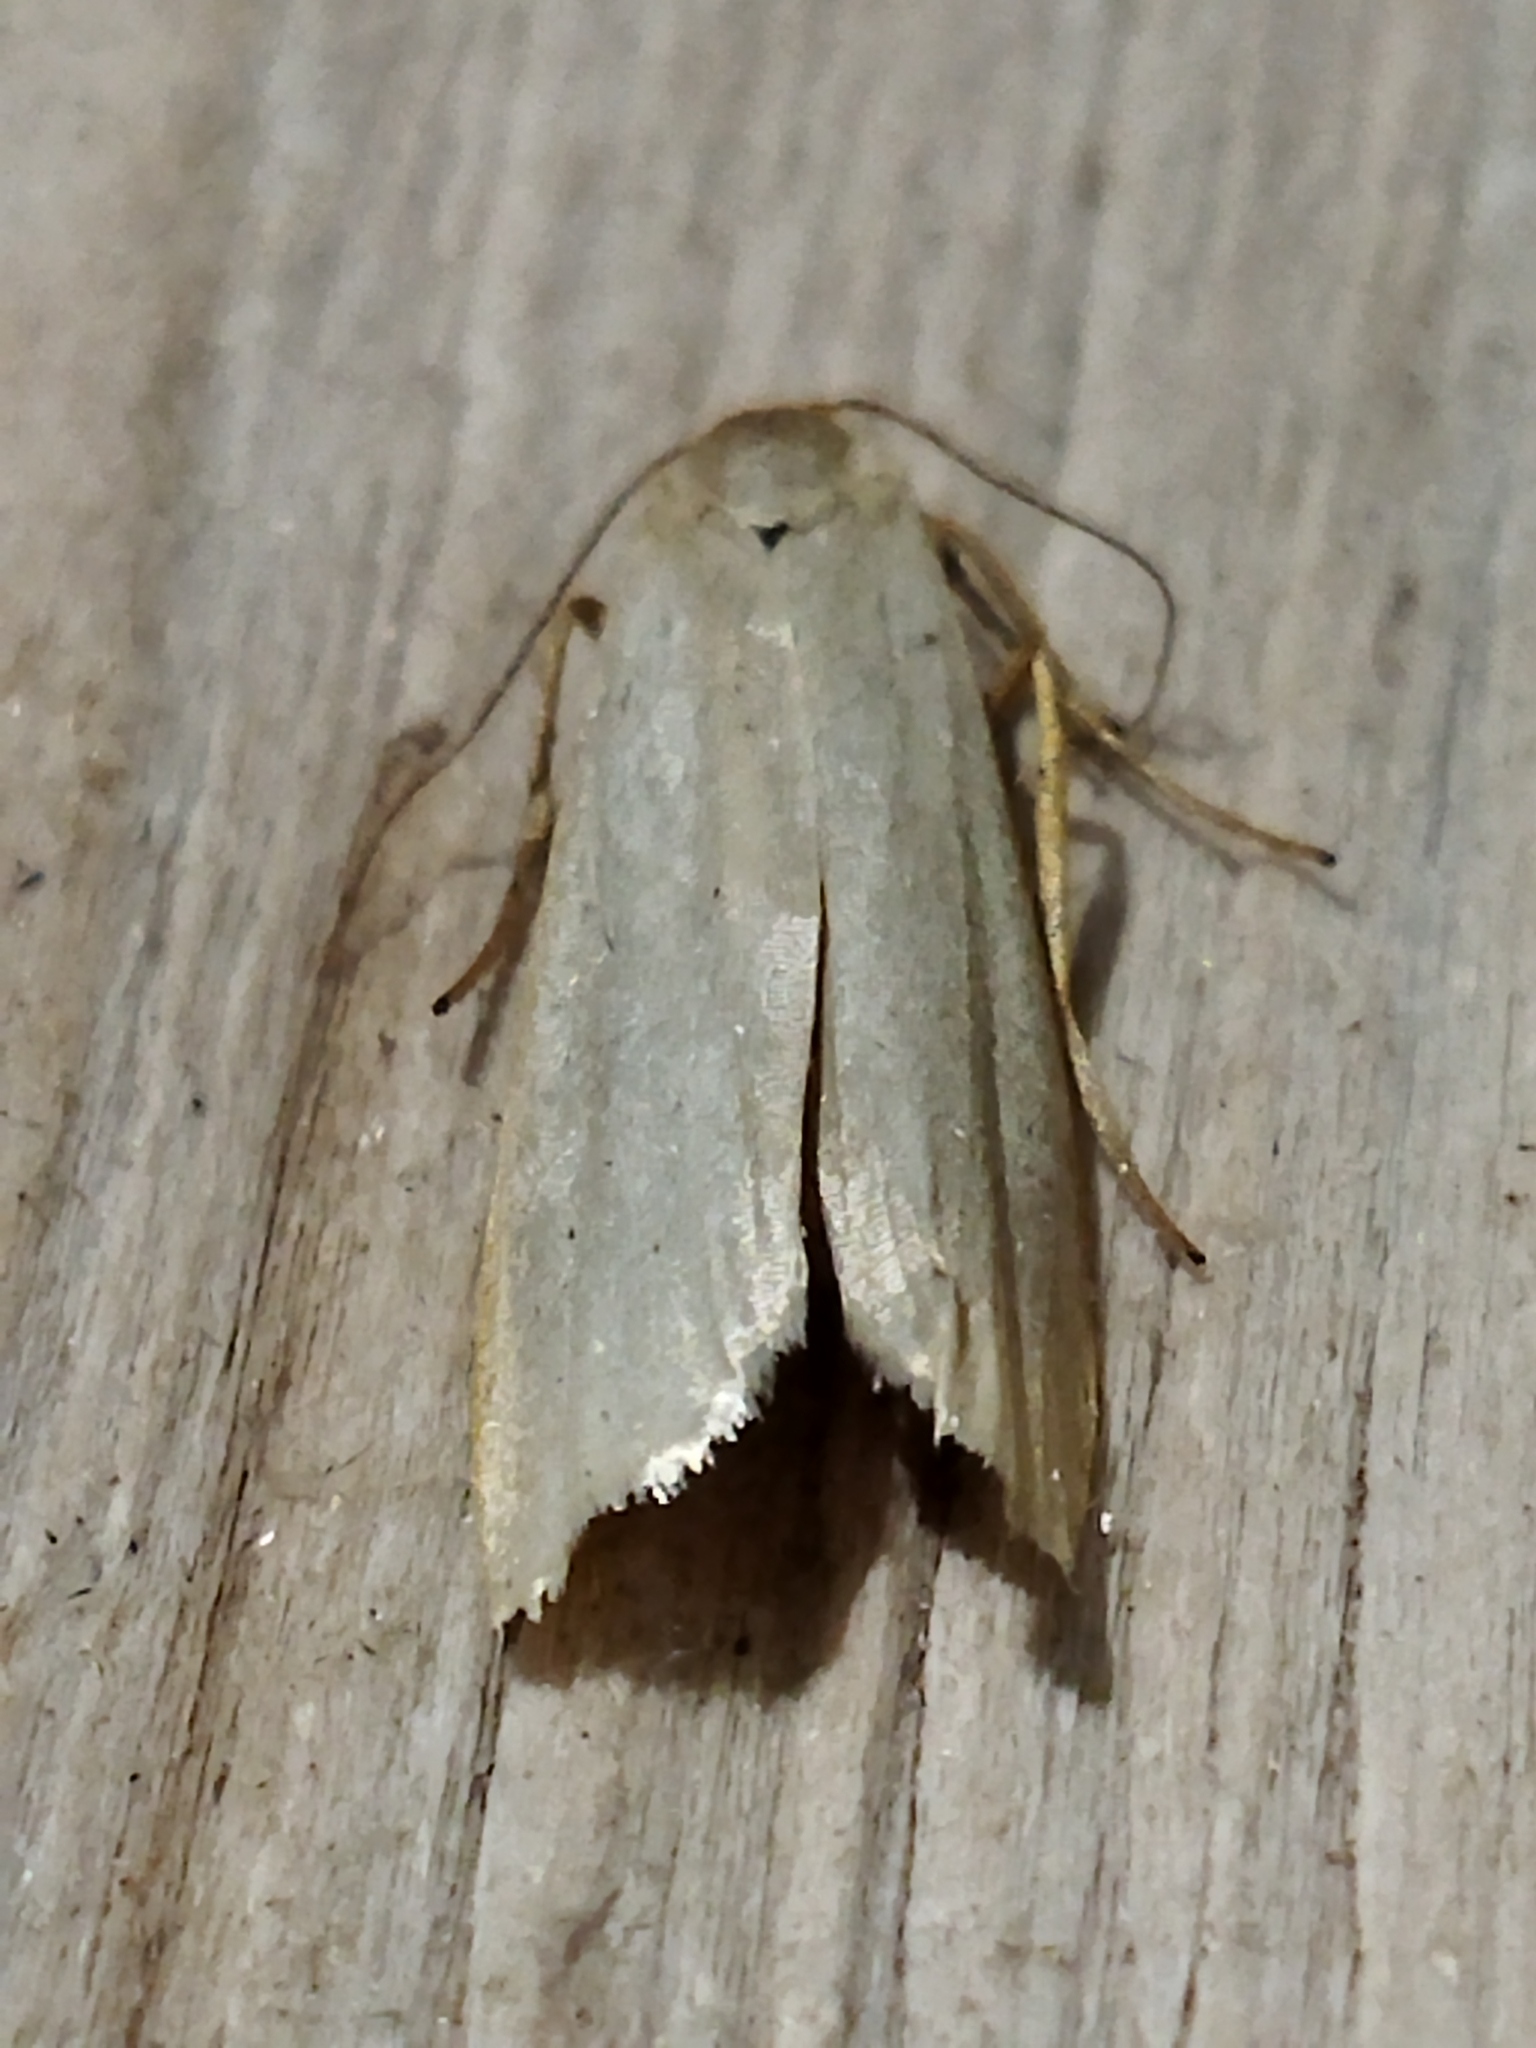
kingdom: Animalia
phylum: Arthropoda
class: Insecta
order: Lepidoptera
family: Erebidae
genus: Eilema
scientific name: Eilema caniola
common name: Hoary footman
